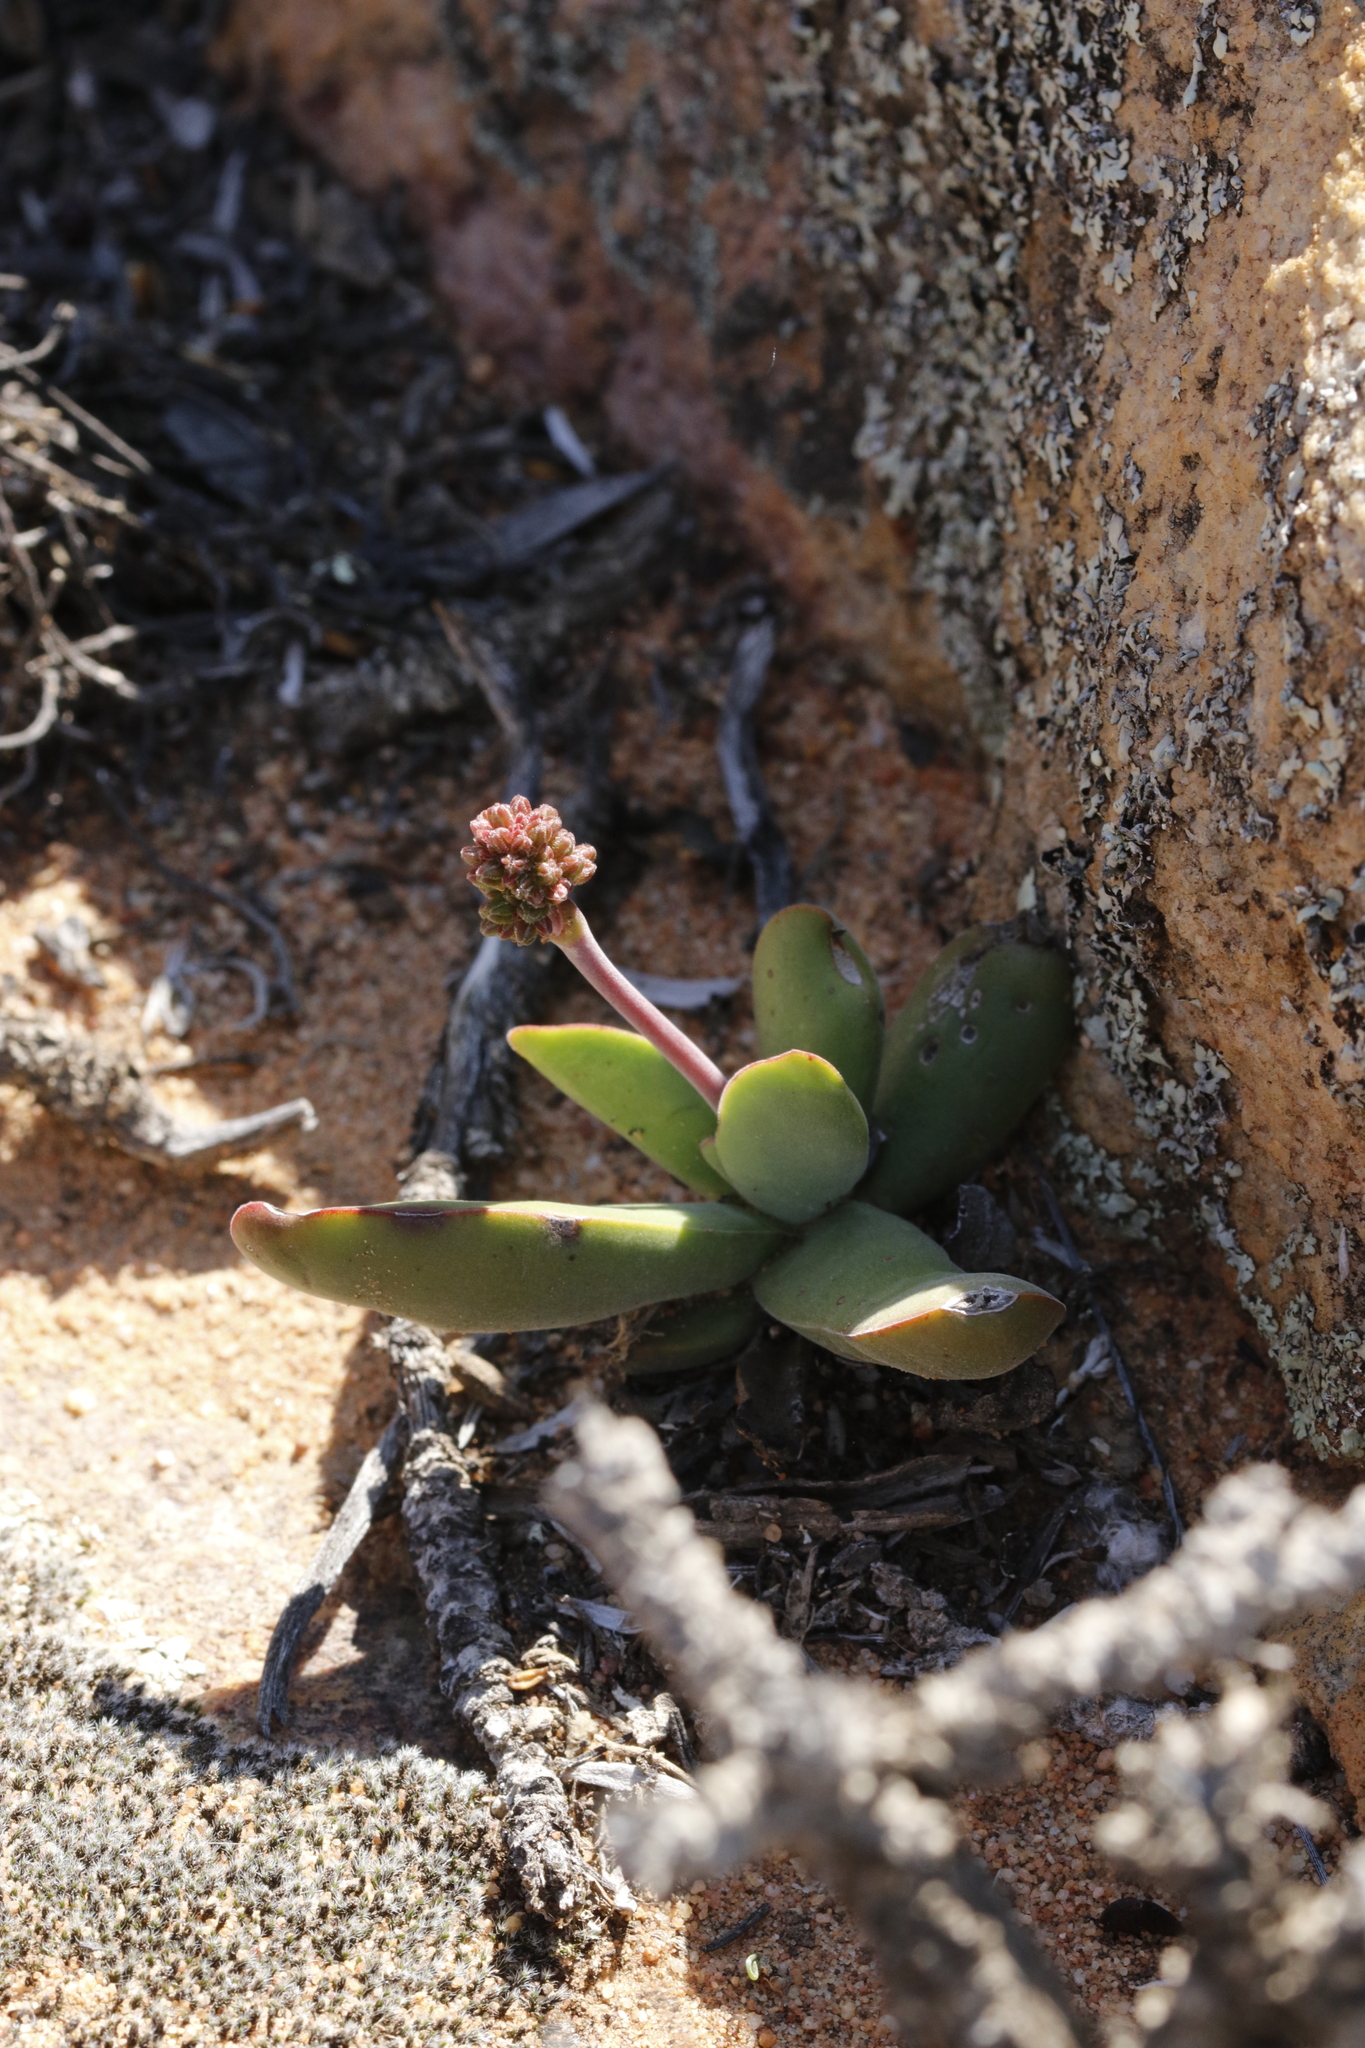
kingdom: Plantae
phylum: Tracheophyta
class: Magnoliopsida
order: Saxifragales
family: Crassulaceae
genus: Crassula
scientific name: Crassula nudicaulis
